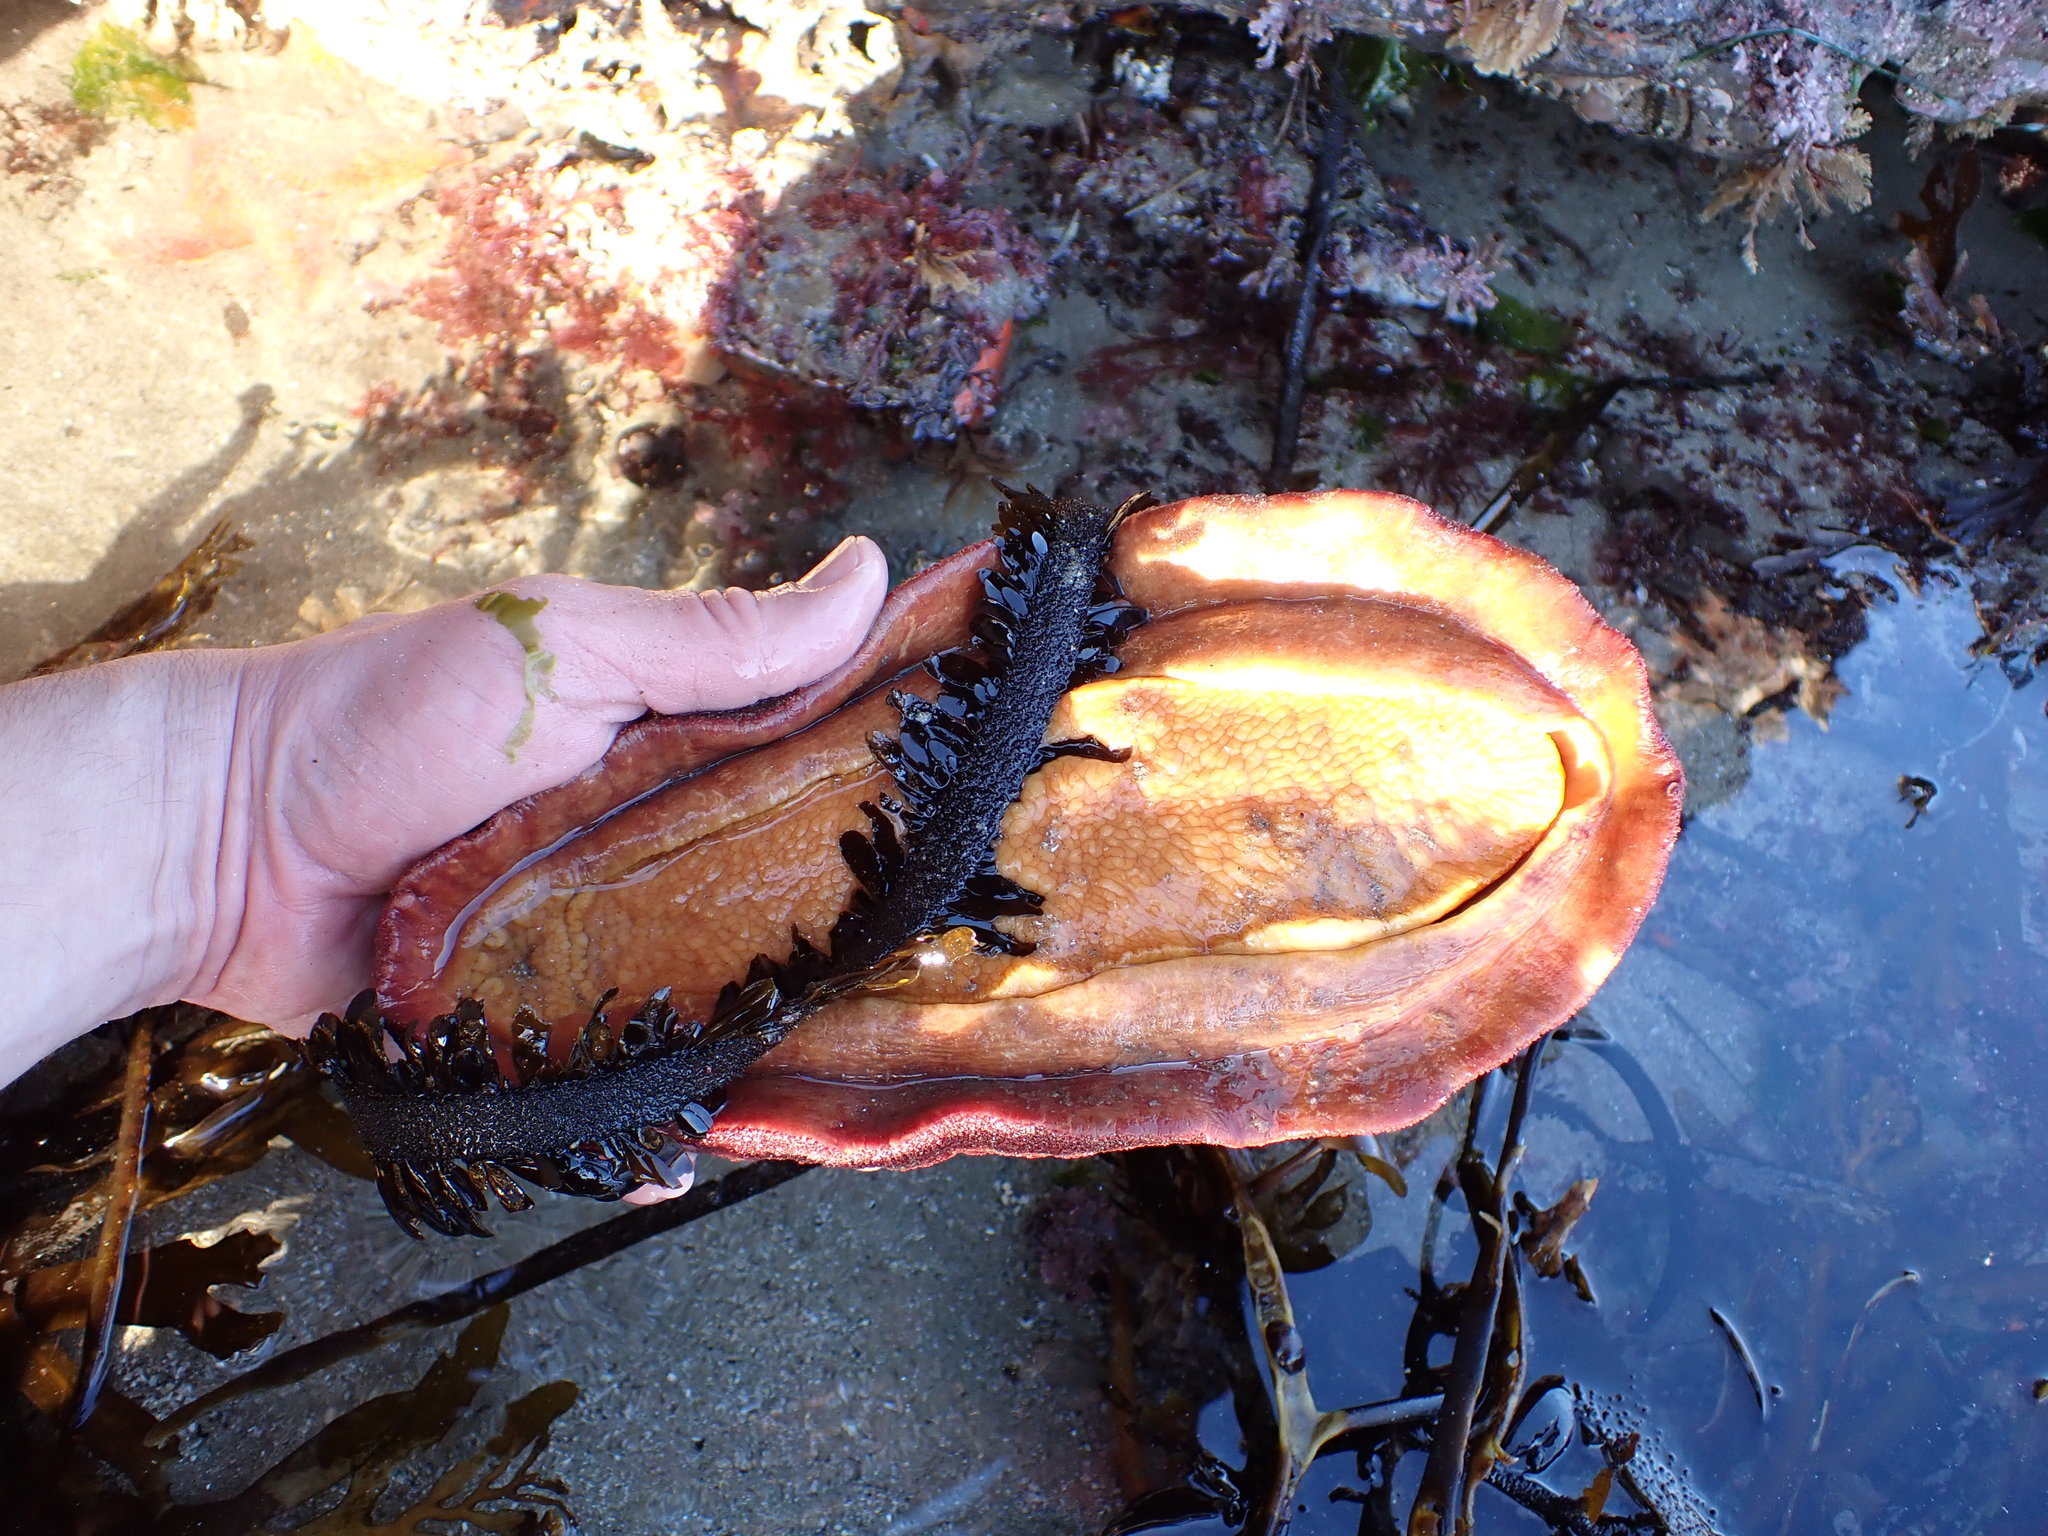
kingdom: Animalia
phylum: Mollusca
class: Polyplacophora
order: Chitonida
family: Acanthochitonidae
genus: Cryptochiton
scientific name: Cryptochiton stelleri
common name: Giant pacific chiton
